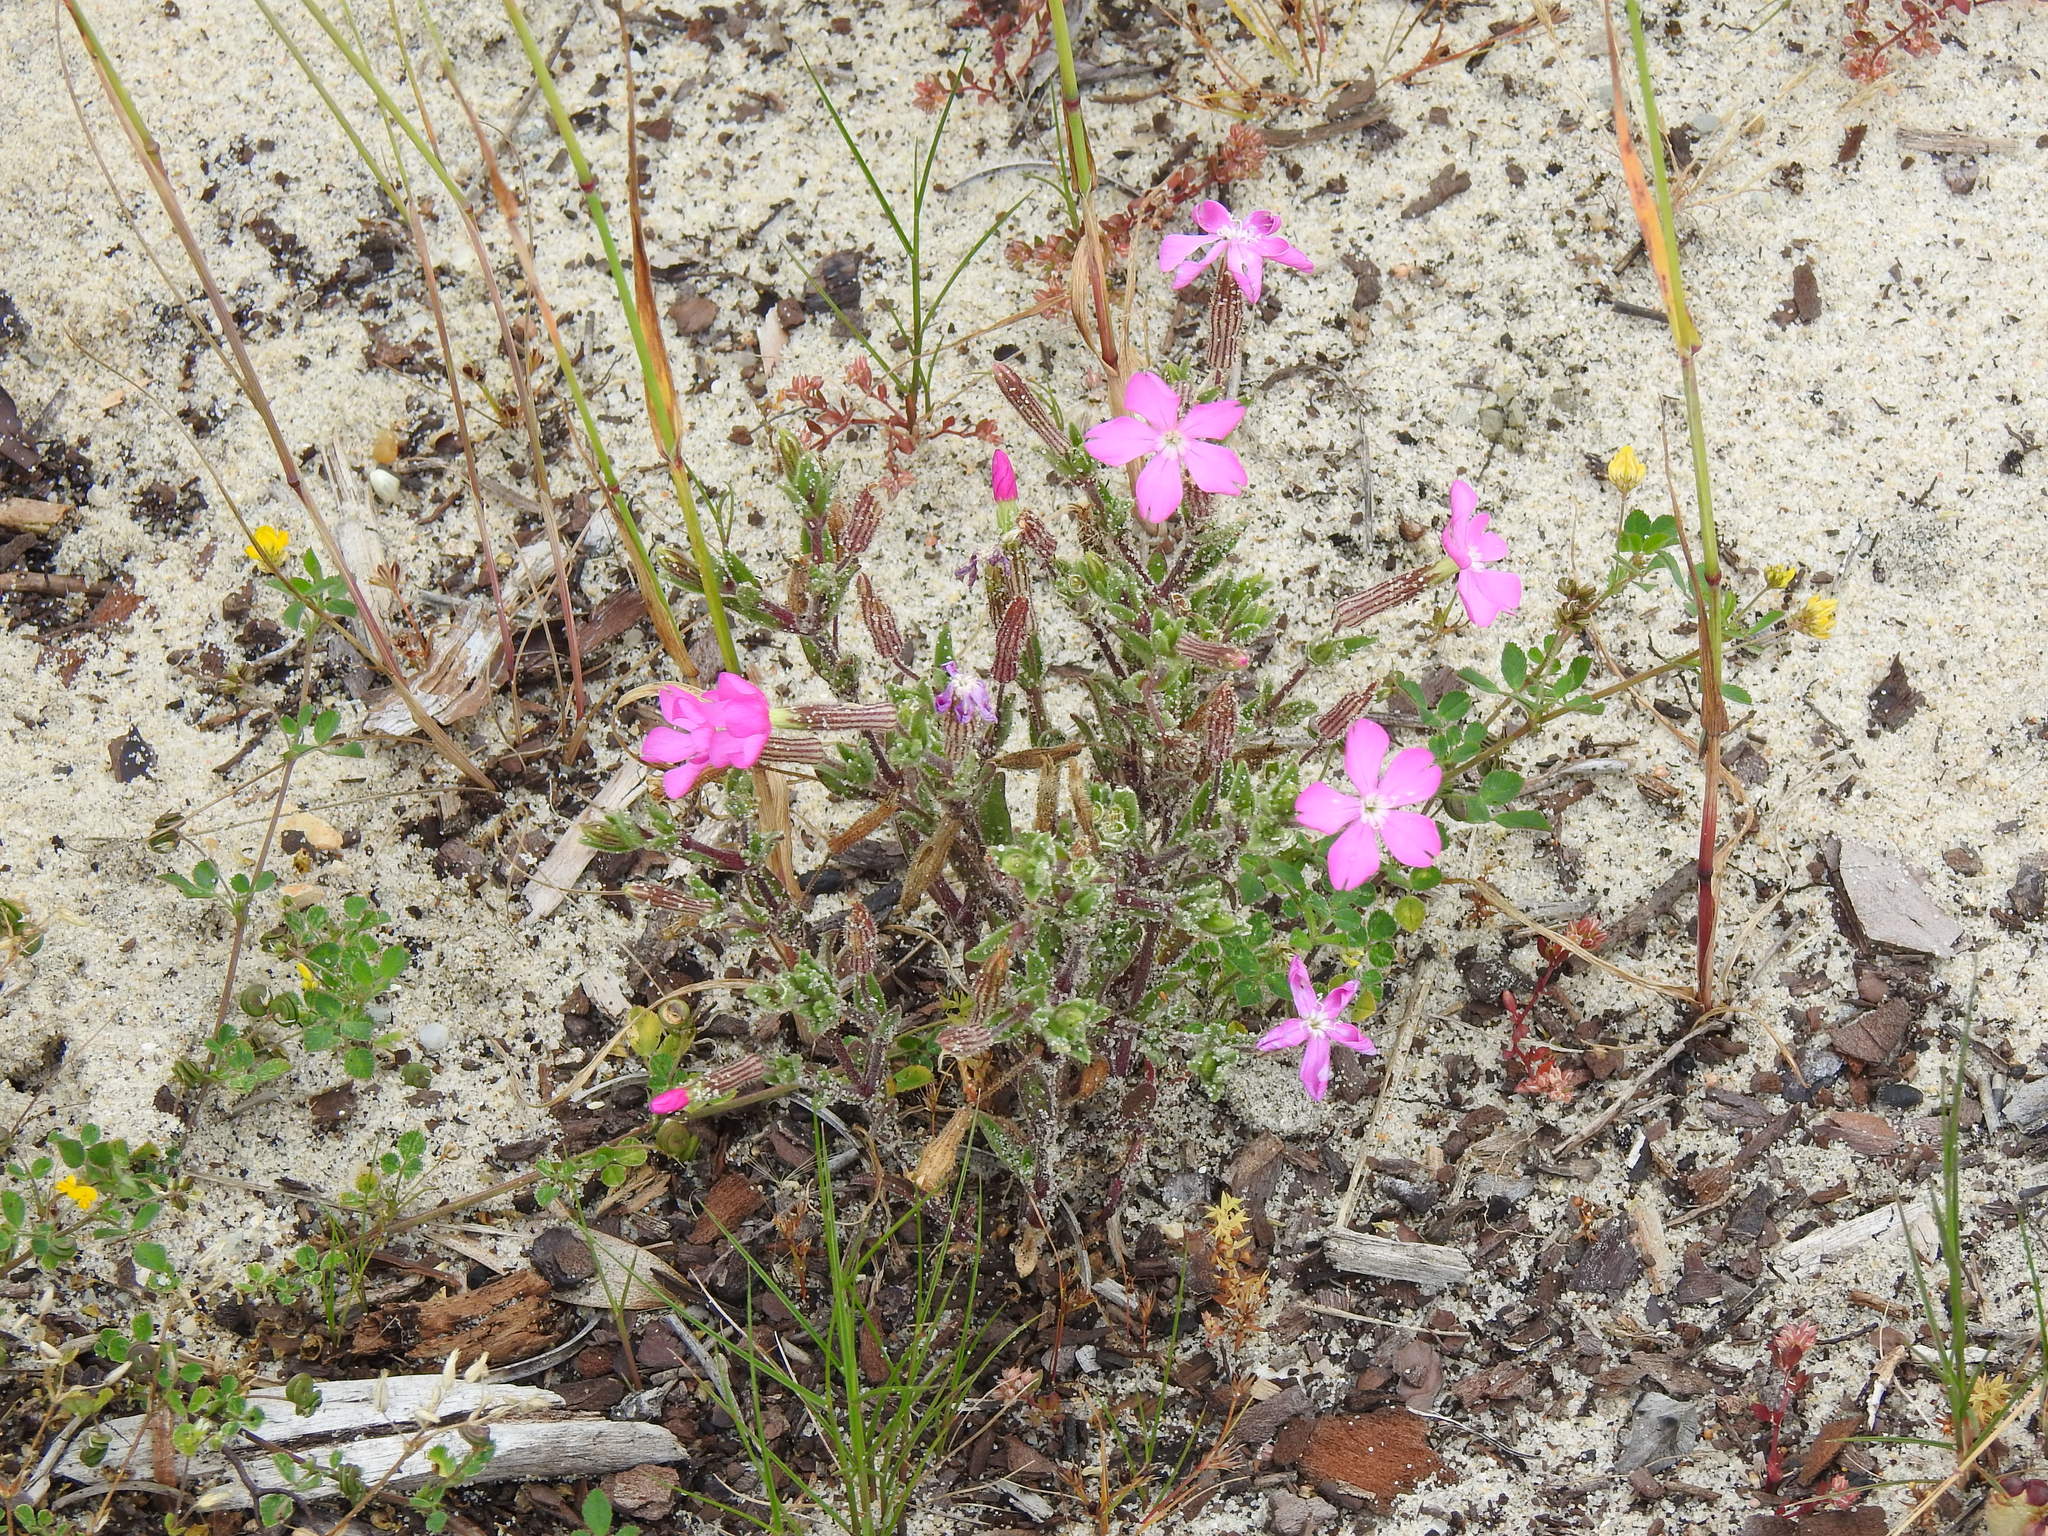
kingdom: Plantae
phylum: Tracheophyta
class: Magnoliopsida
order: Caryophyllales
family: Caryophyllaceae
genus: Silene
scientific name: Silene littorea
